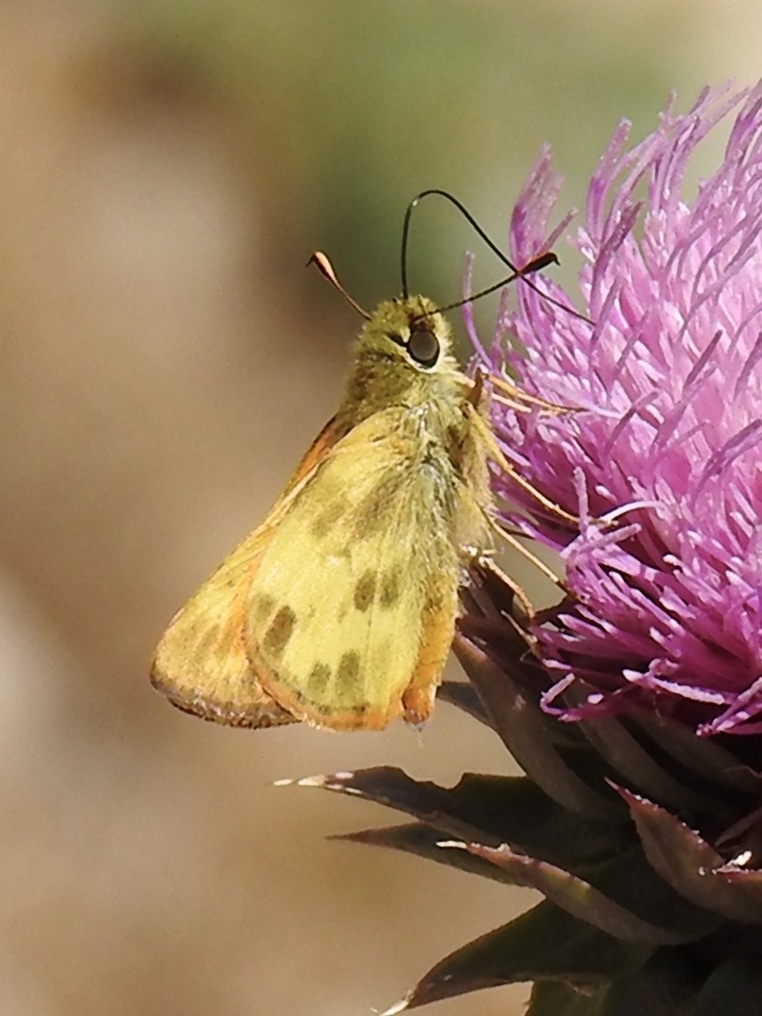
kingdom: Animalia
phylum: Arthropoda
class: Insecta
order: Lepidoptera
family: Hesperiidae
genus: Lon
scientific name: Lon taxiles
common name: Taxiles skipper
